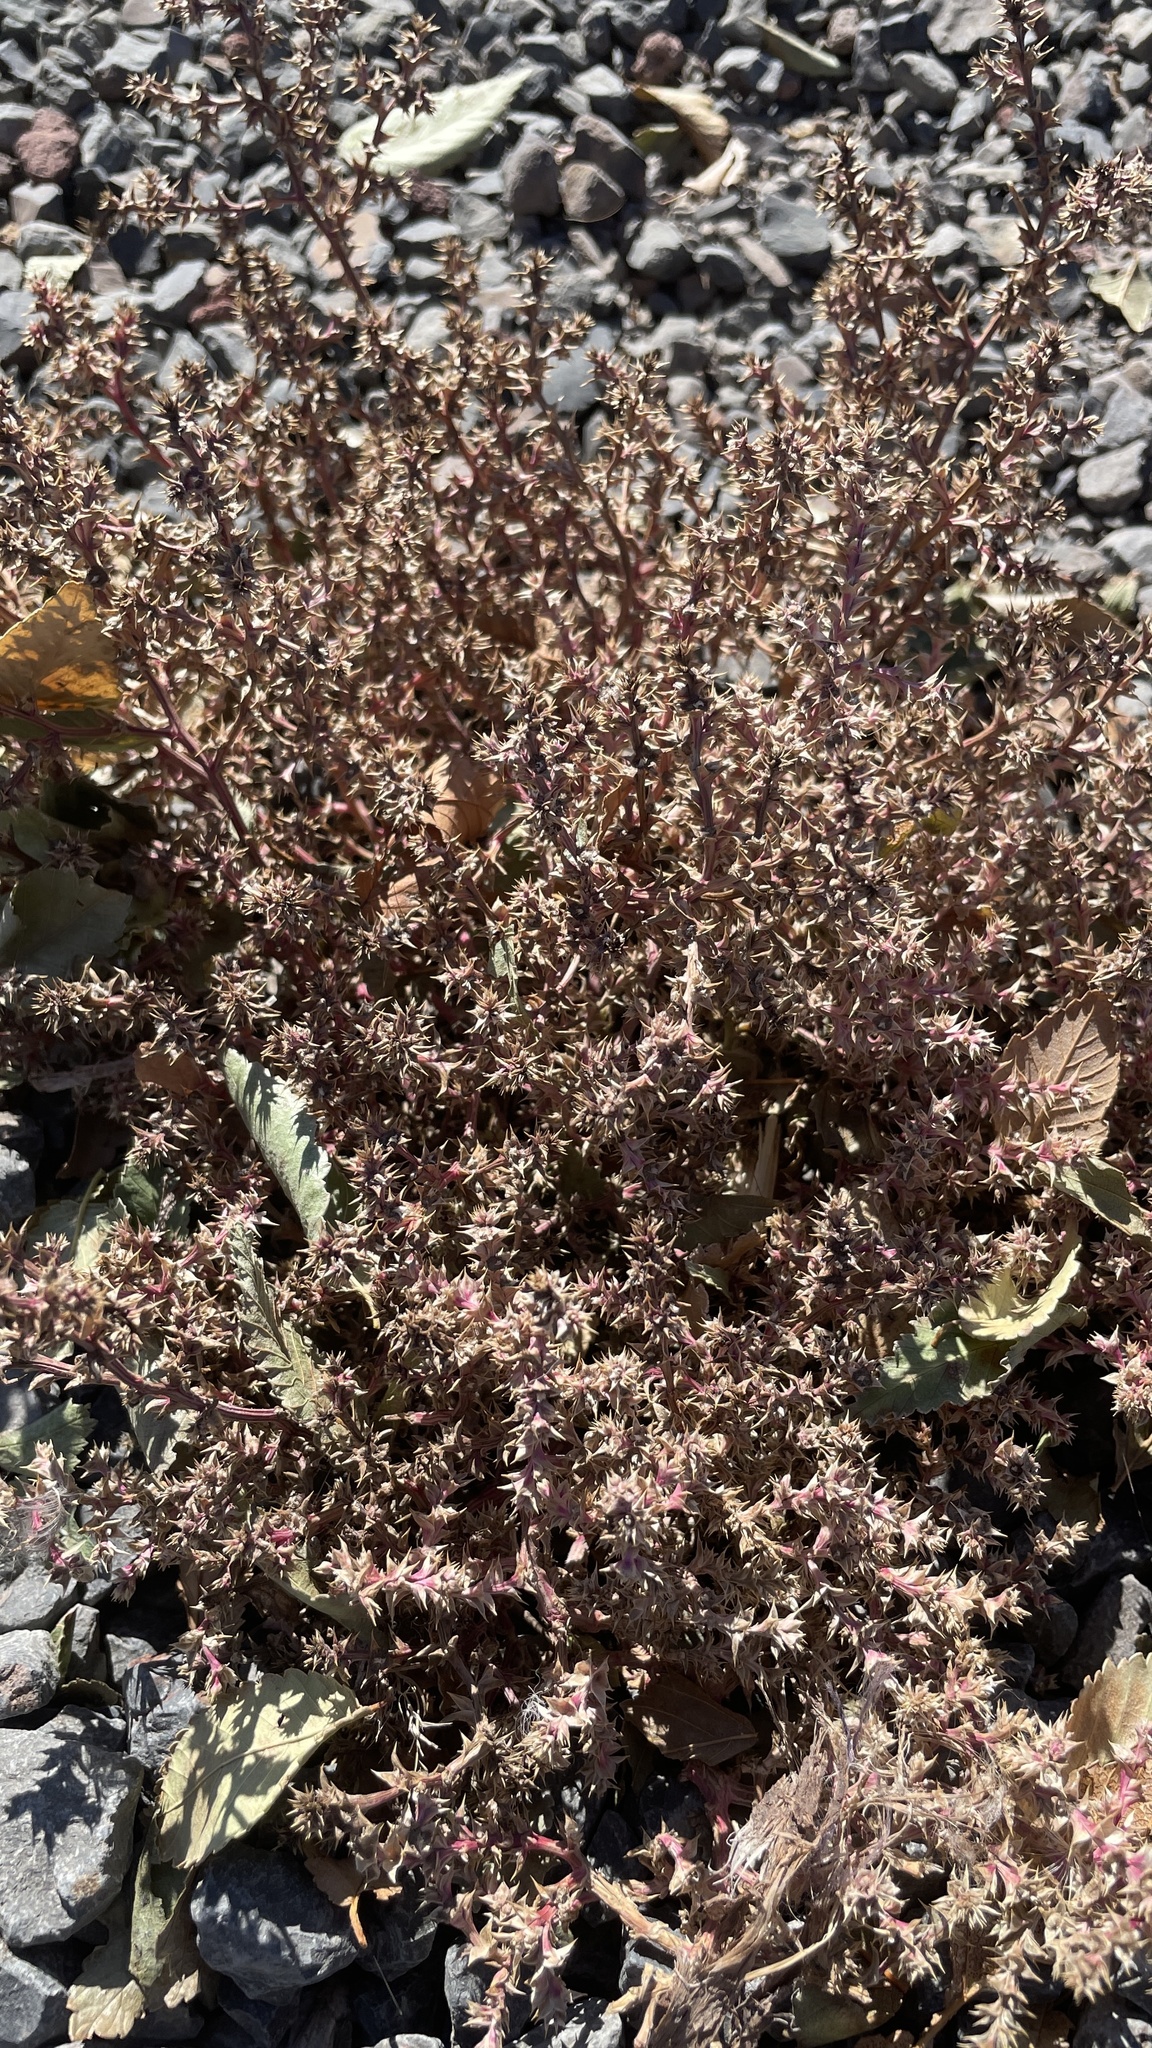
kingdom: Plantae
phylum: Tracheophyta
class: Magnoliopsida
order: Caryophyllales
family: Amaranthaceae
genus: Salsola
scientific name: Salsola tragus
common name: Prickly russian thistle
